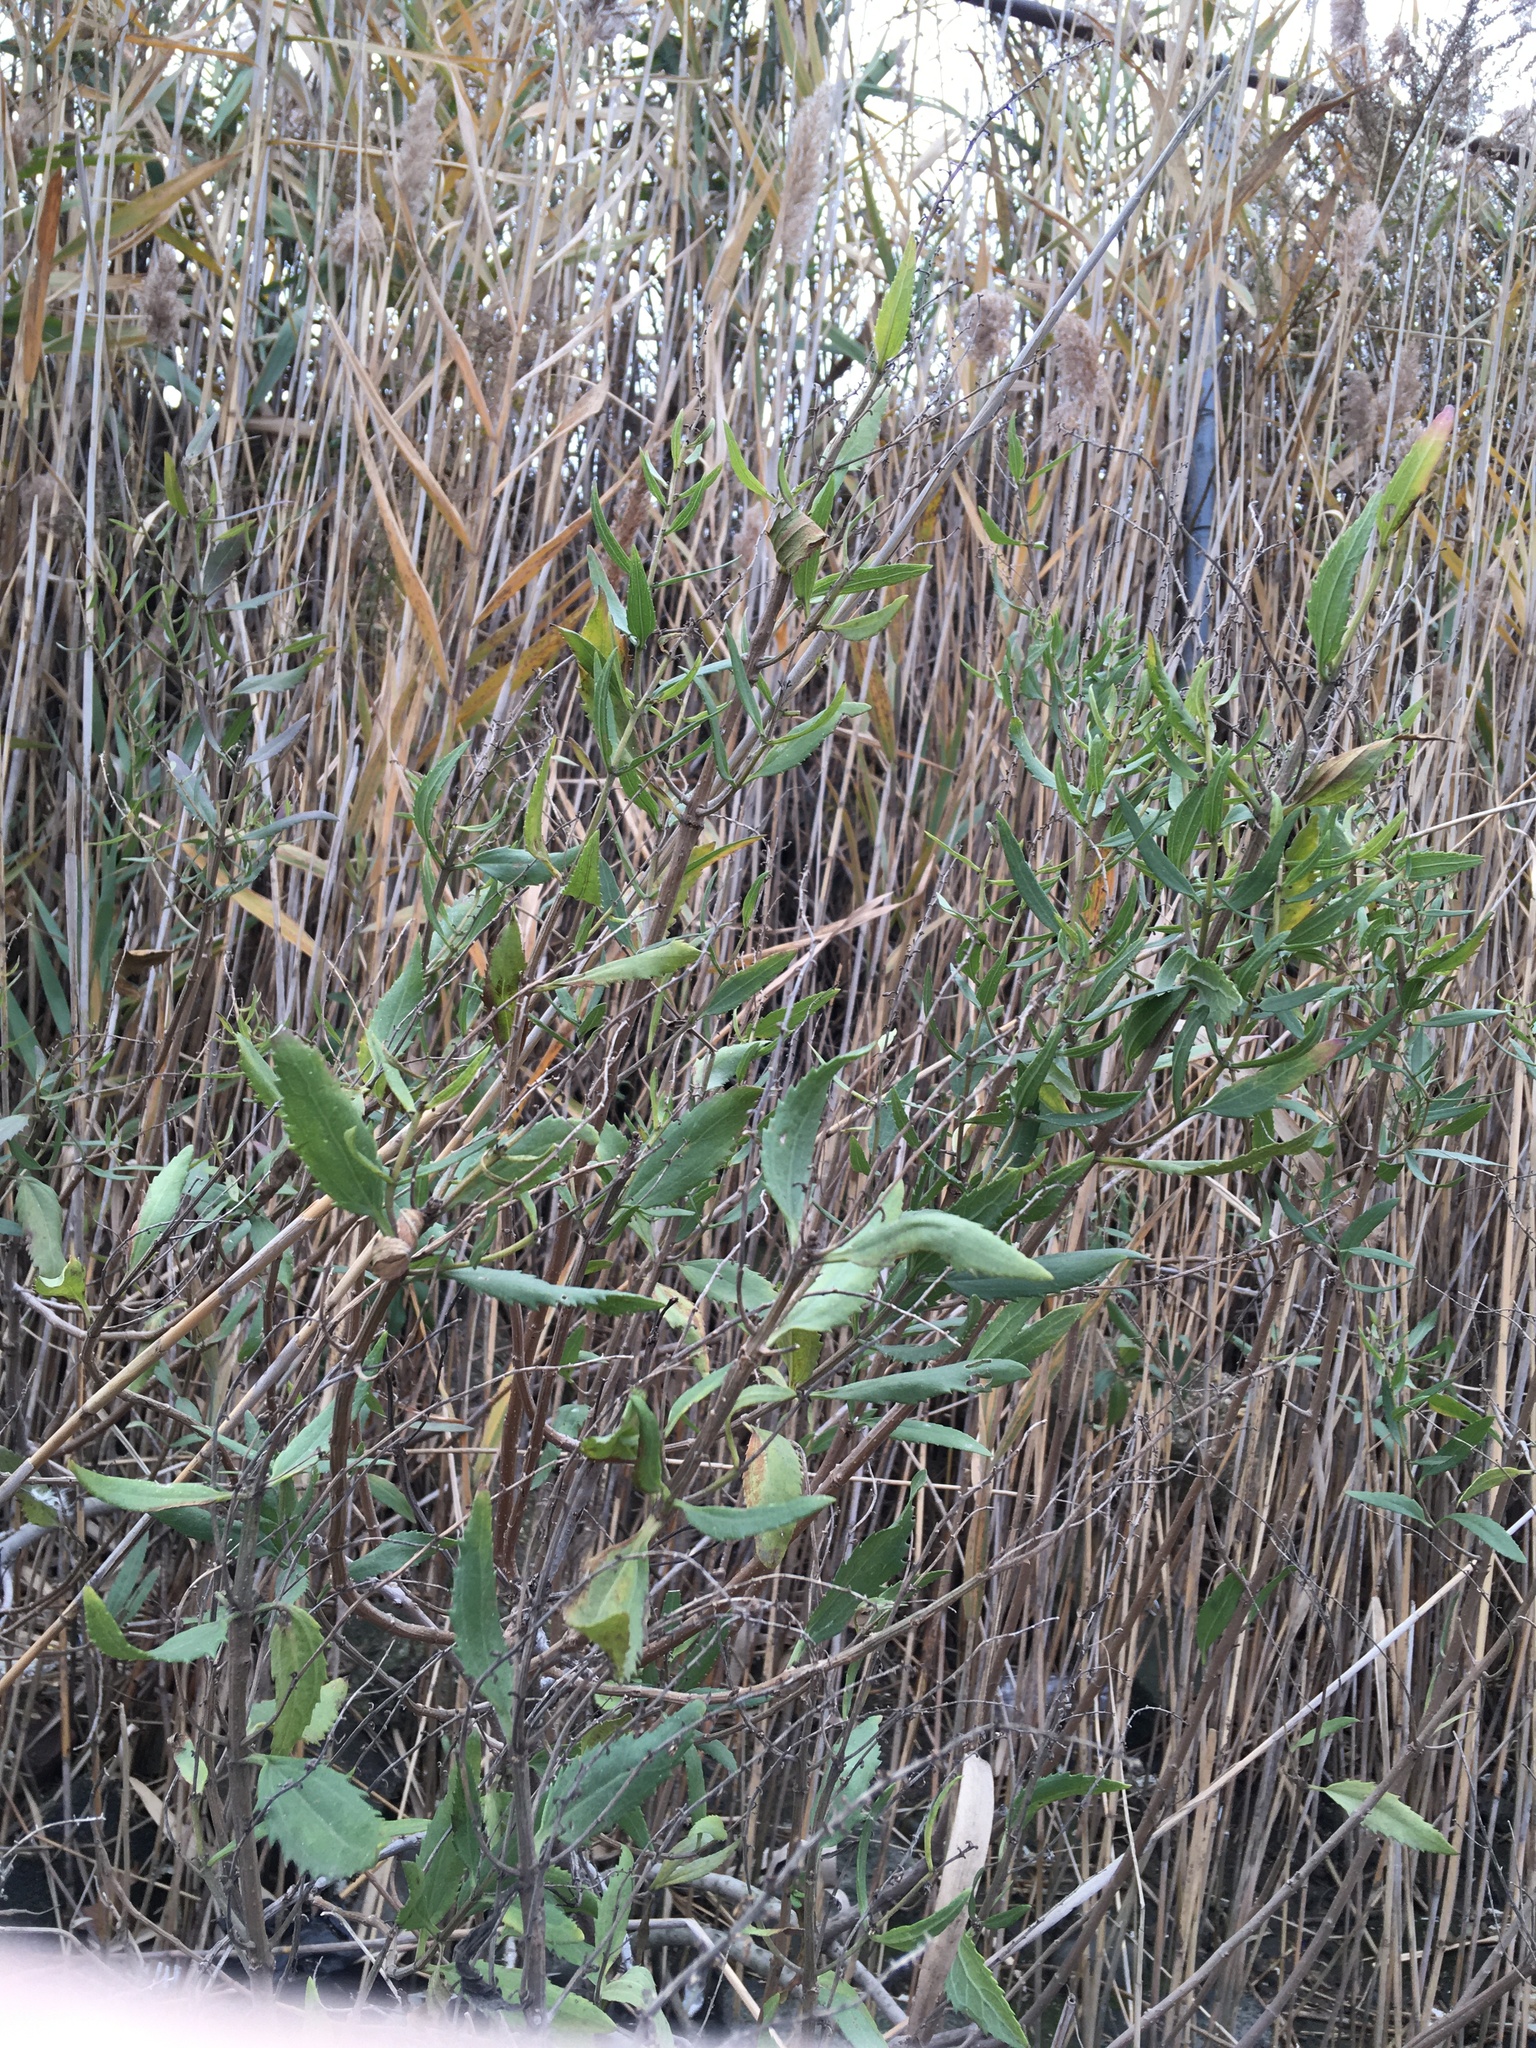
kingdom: Plantae
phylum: Tracheophyta
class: Magnoliopsida
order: Asterales
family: Asteraceae
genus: Iva
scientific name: Iva frutescens
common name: Big-leaved marsh-elder
